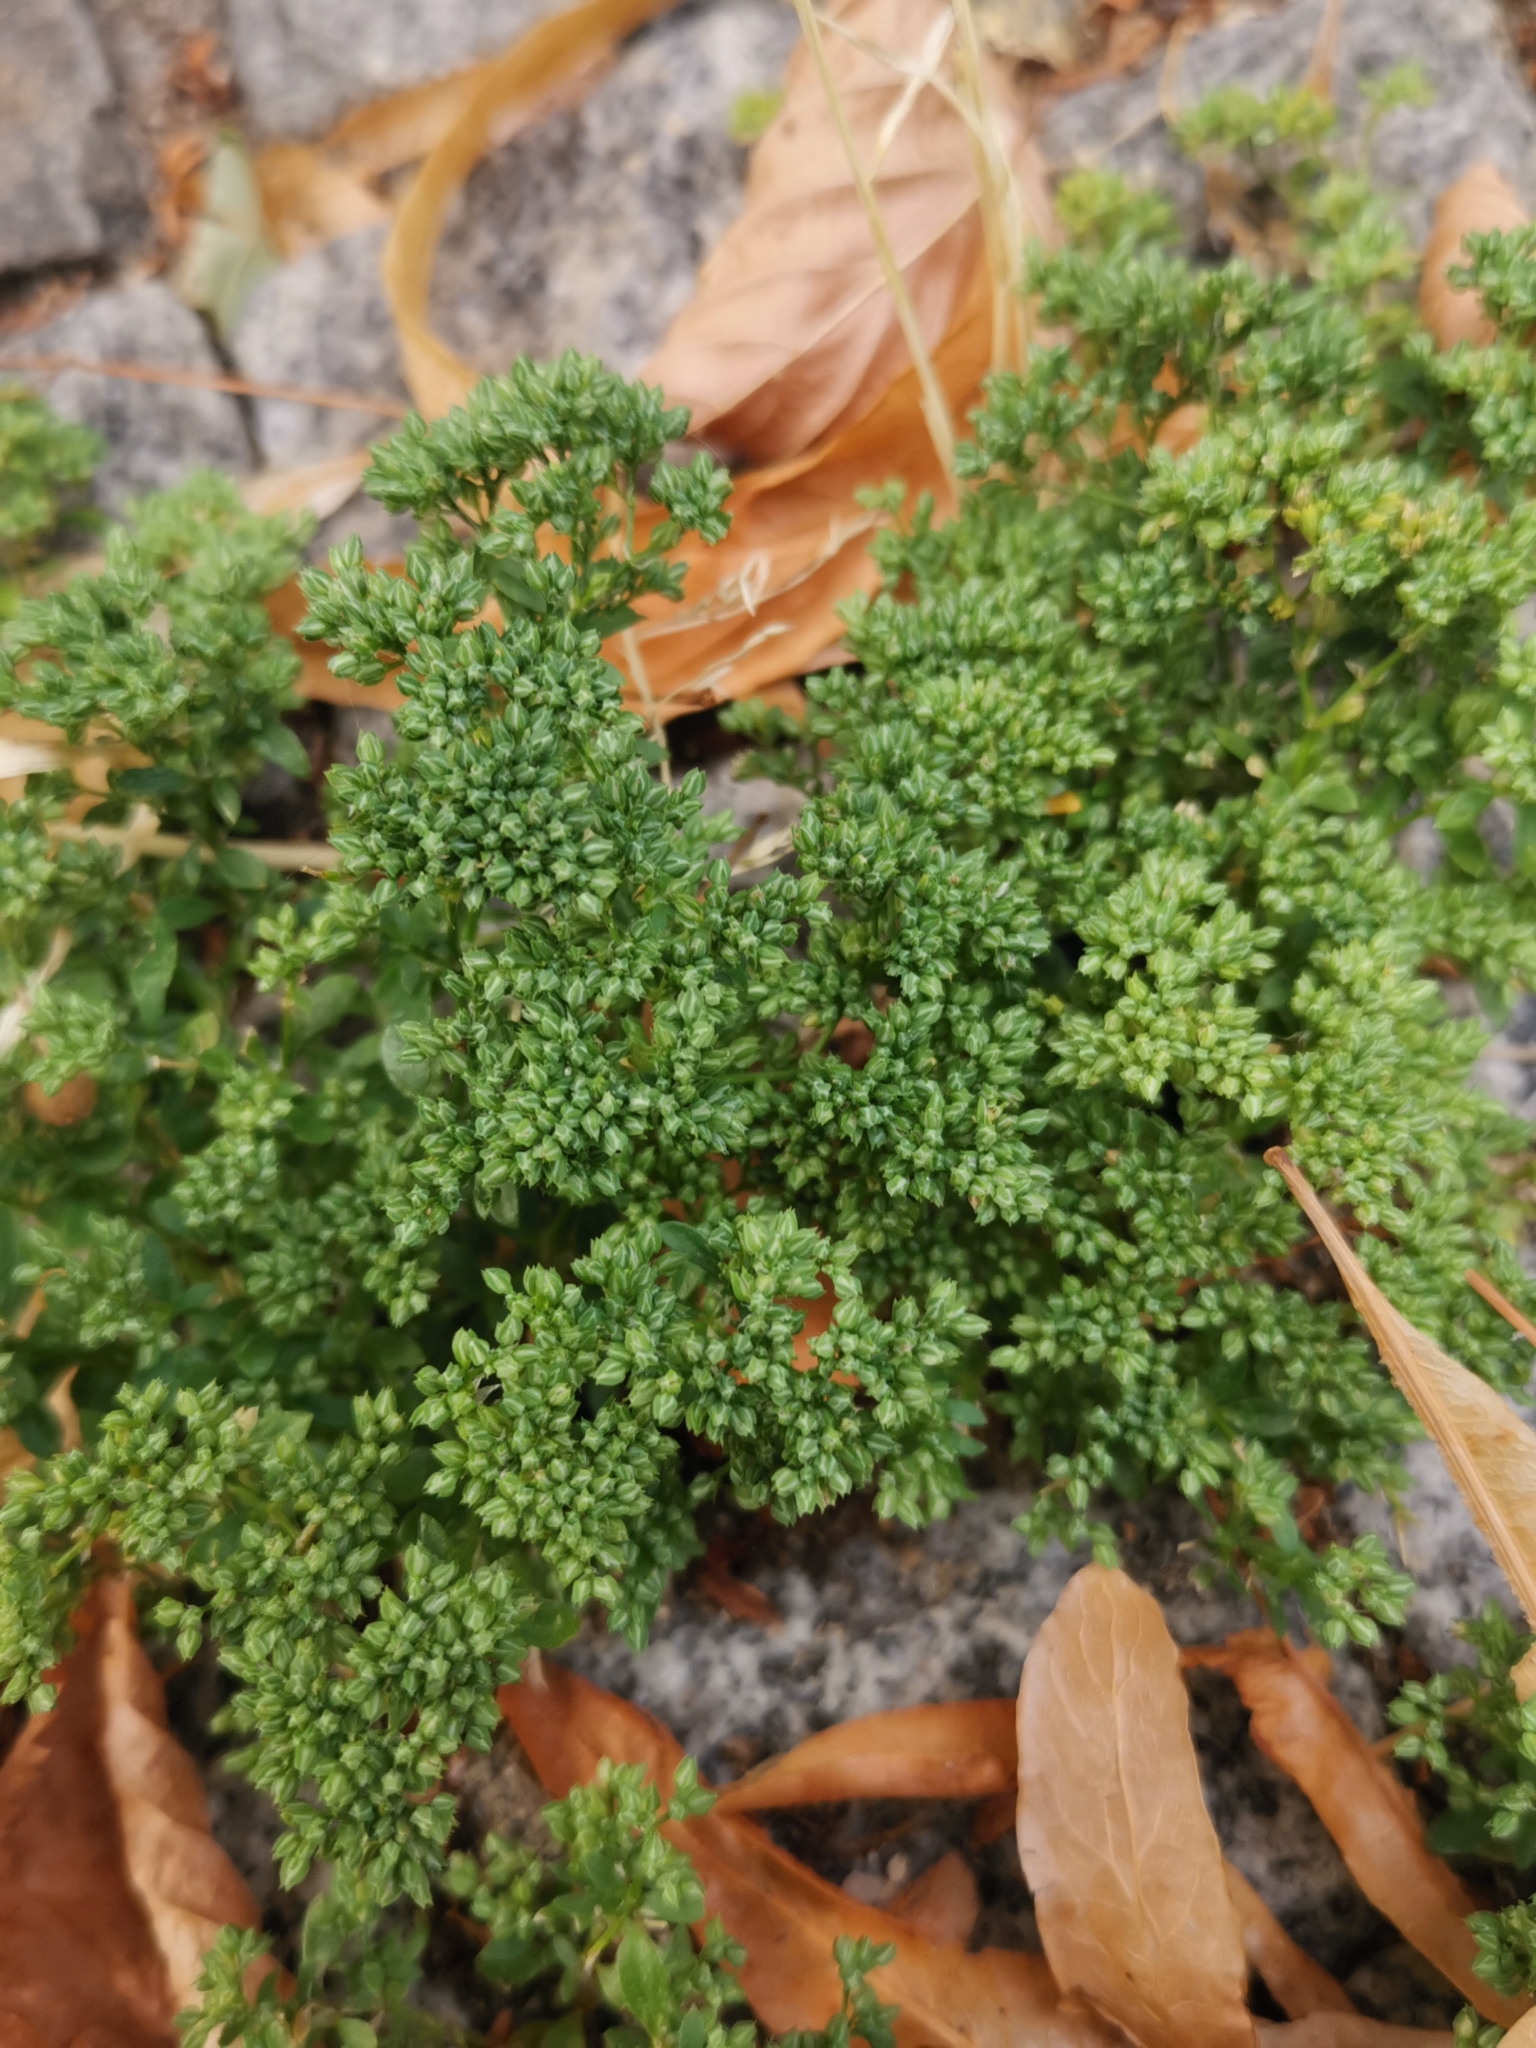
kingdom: Plantae
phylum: Tracheophyta
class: Magnoliopsida
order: Caryophyllales
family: Caryophyllaceae
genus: Polycarpon
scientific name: Polycarpon tetraphyllum
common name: Four-leaved all-seed
